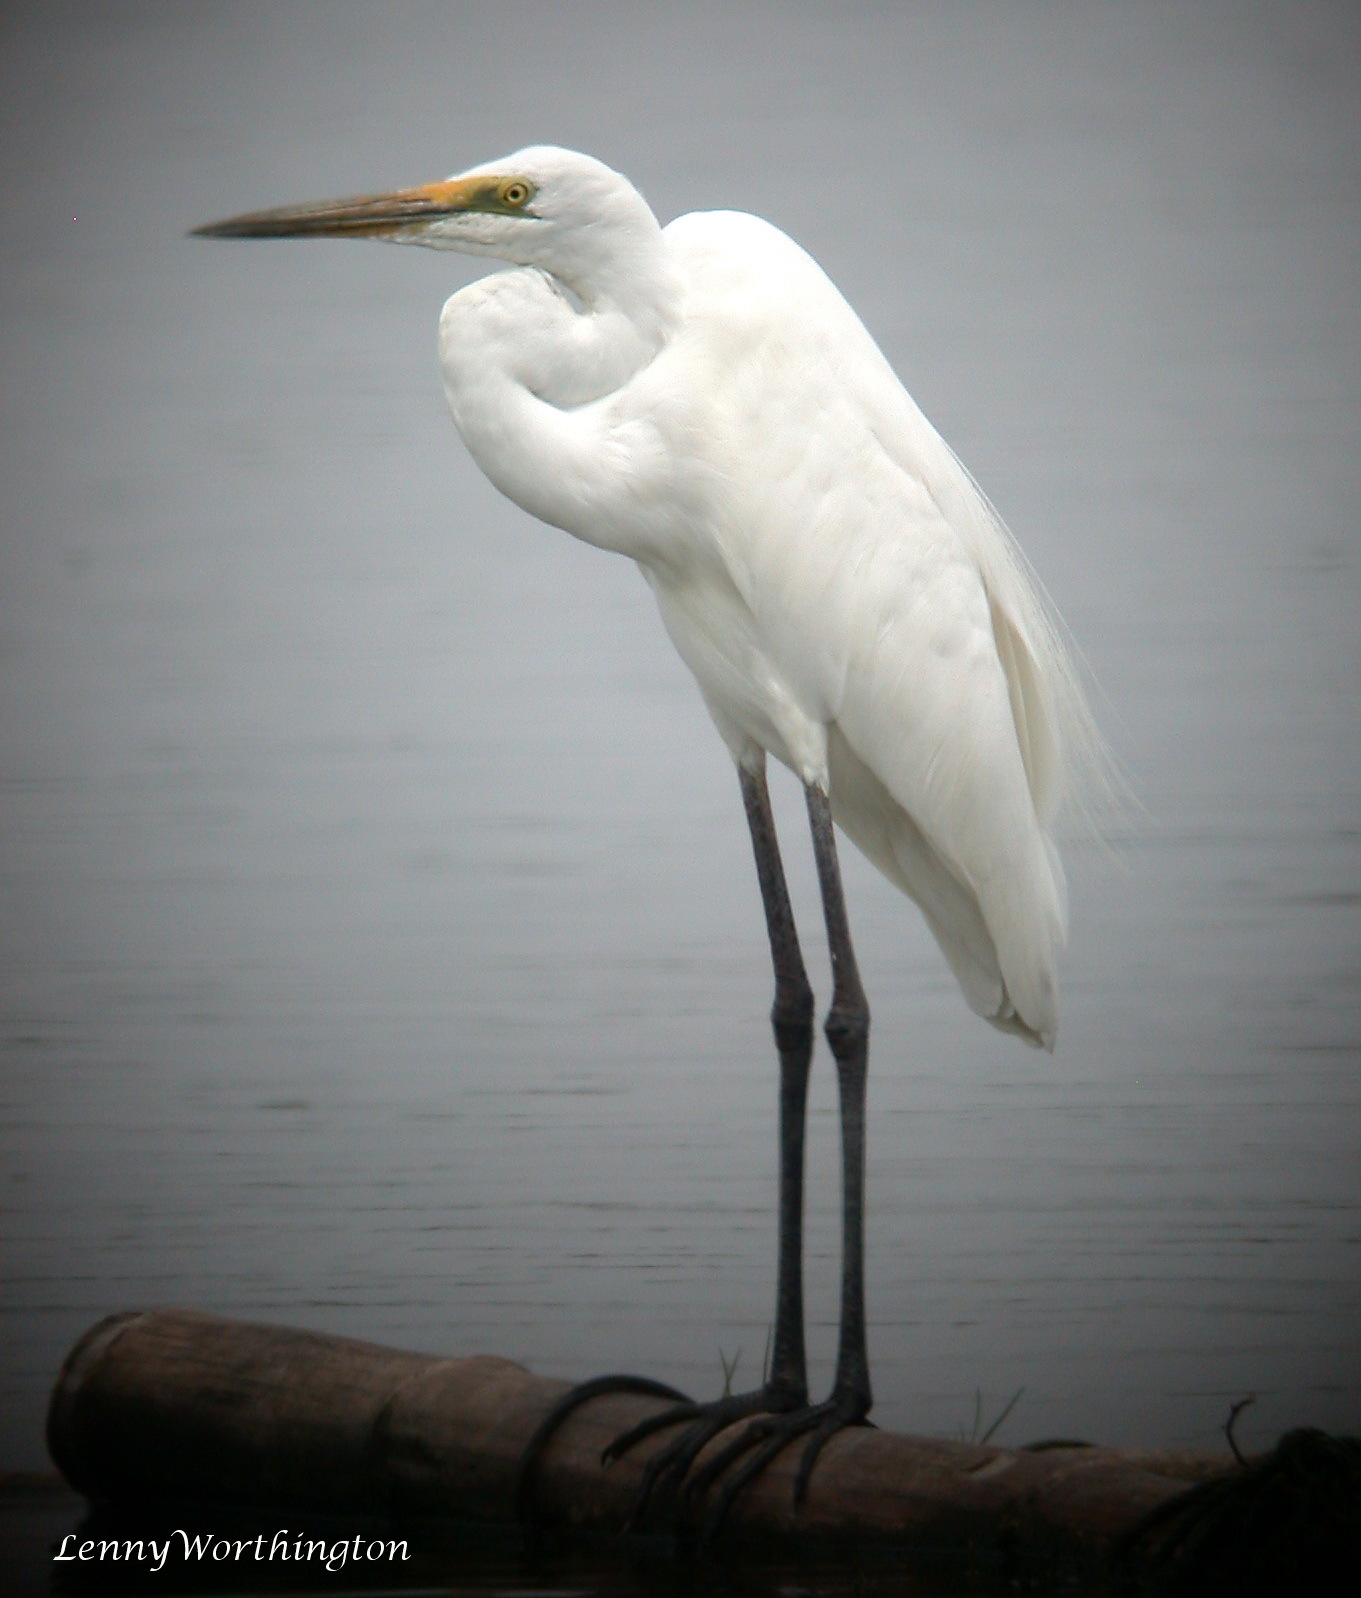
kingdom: Animalia
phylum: Chordata
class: Aves
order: Pelecaniformes
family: Ardeidae
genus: Ardea
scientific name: Ardea modesta
